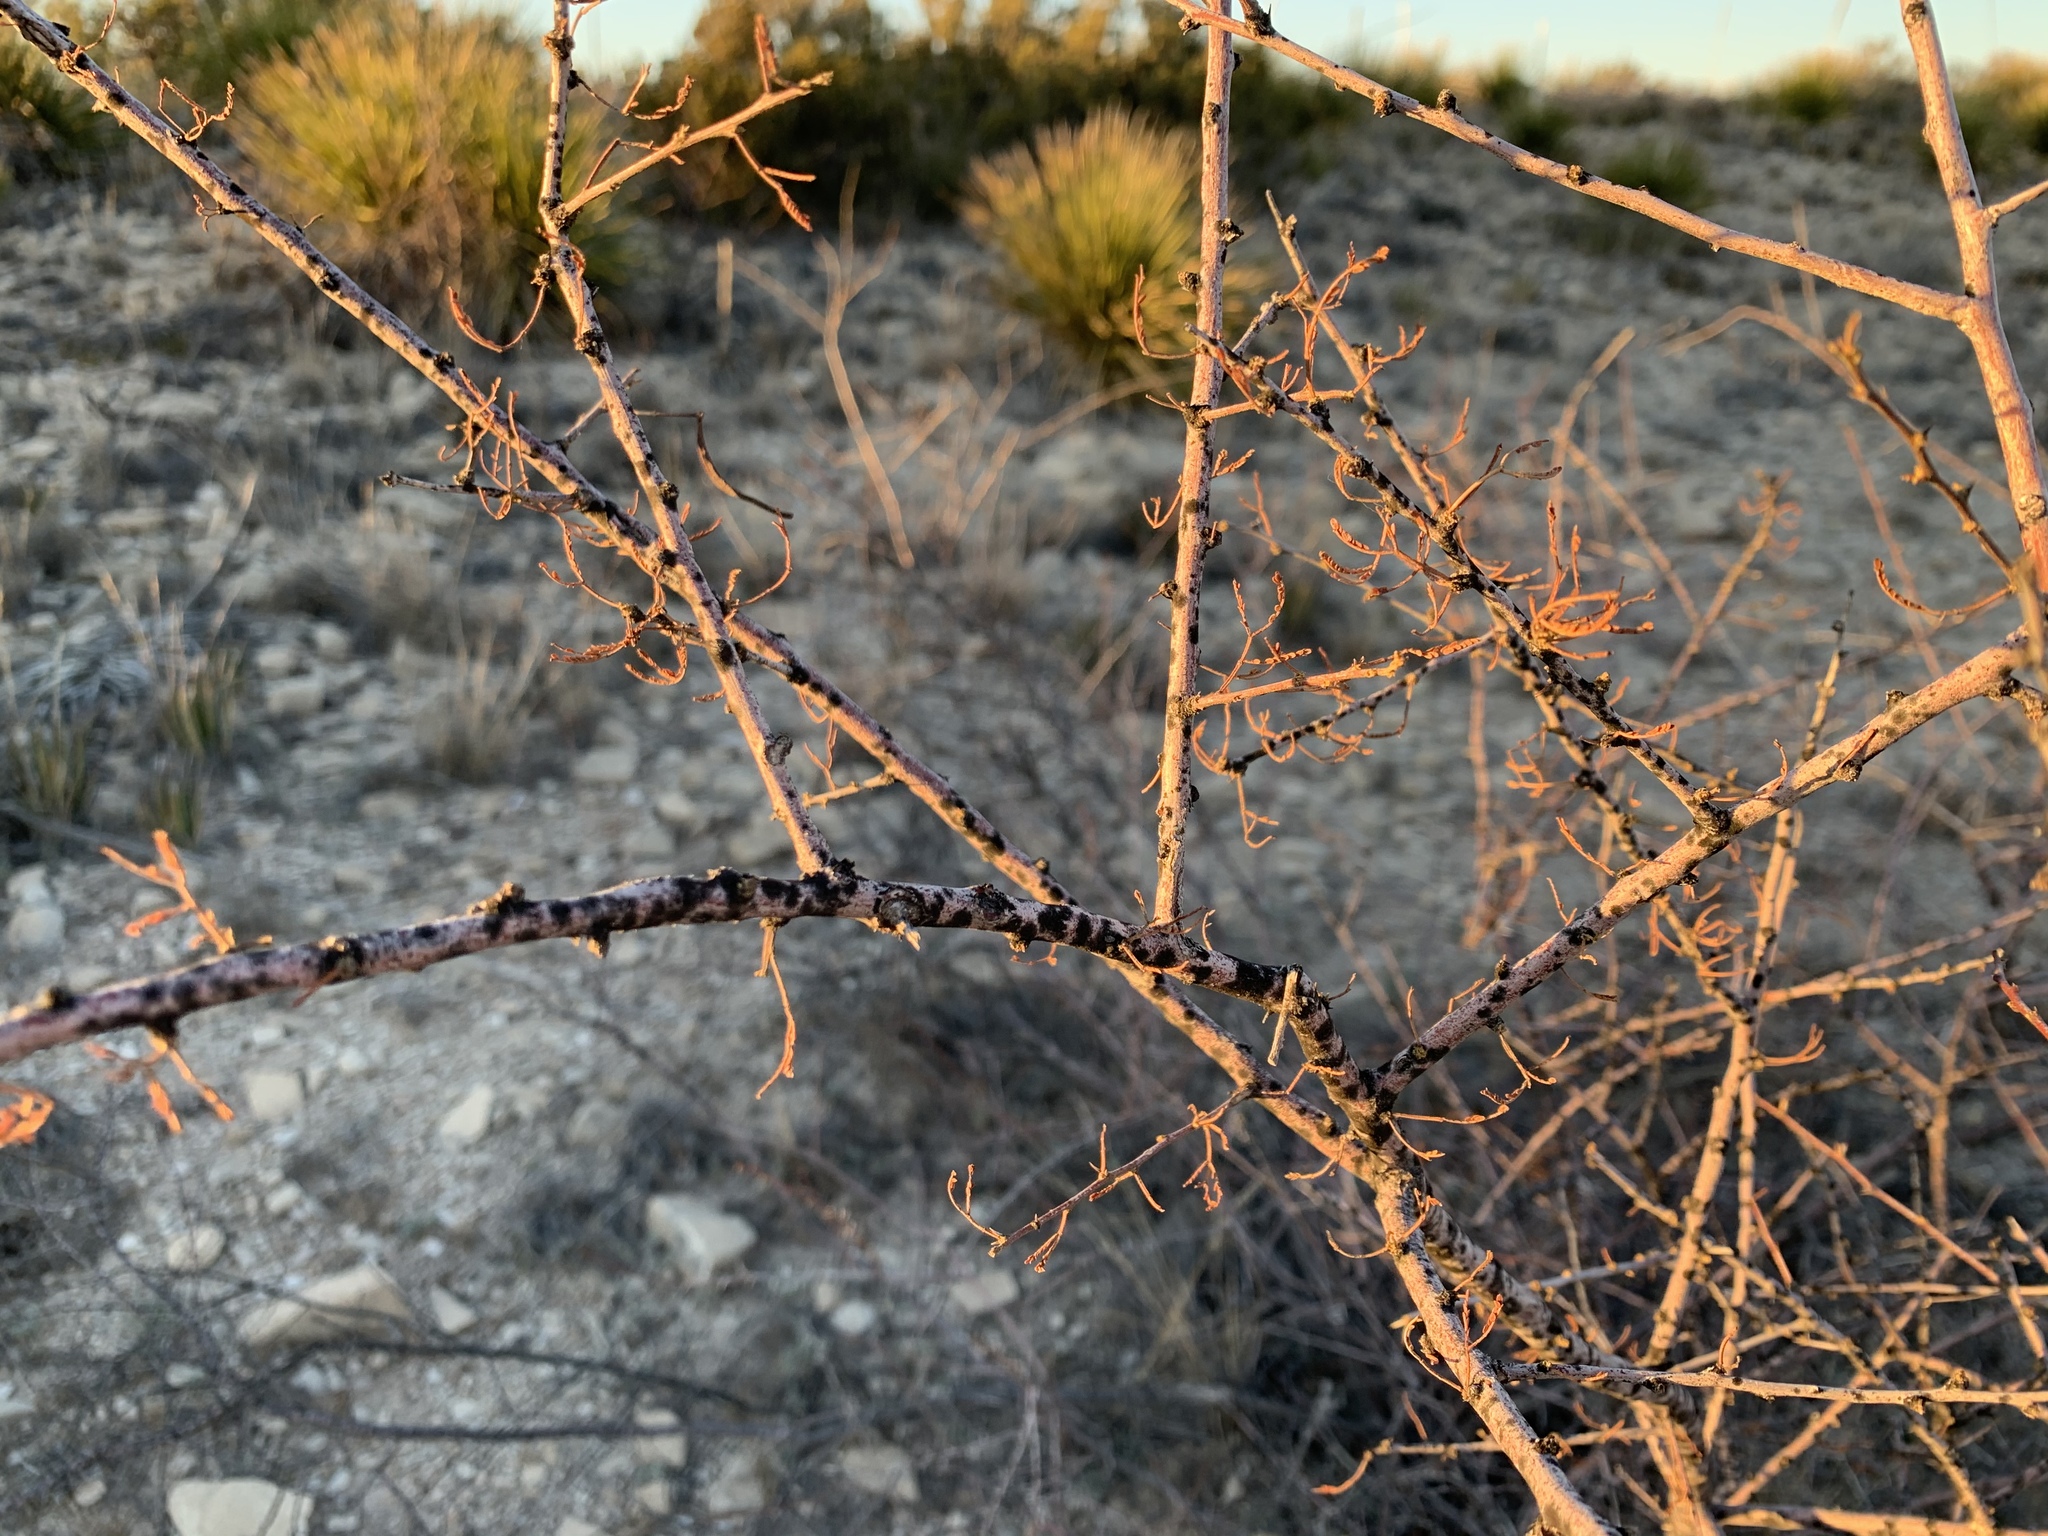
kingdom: Plantae
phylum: Tracheophyta
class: Magnoliopsida
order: Fabales
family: Fabaceae
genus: Vachellia
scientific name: Vachellia constricta
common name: Mescat acacia
